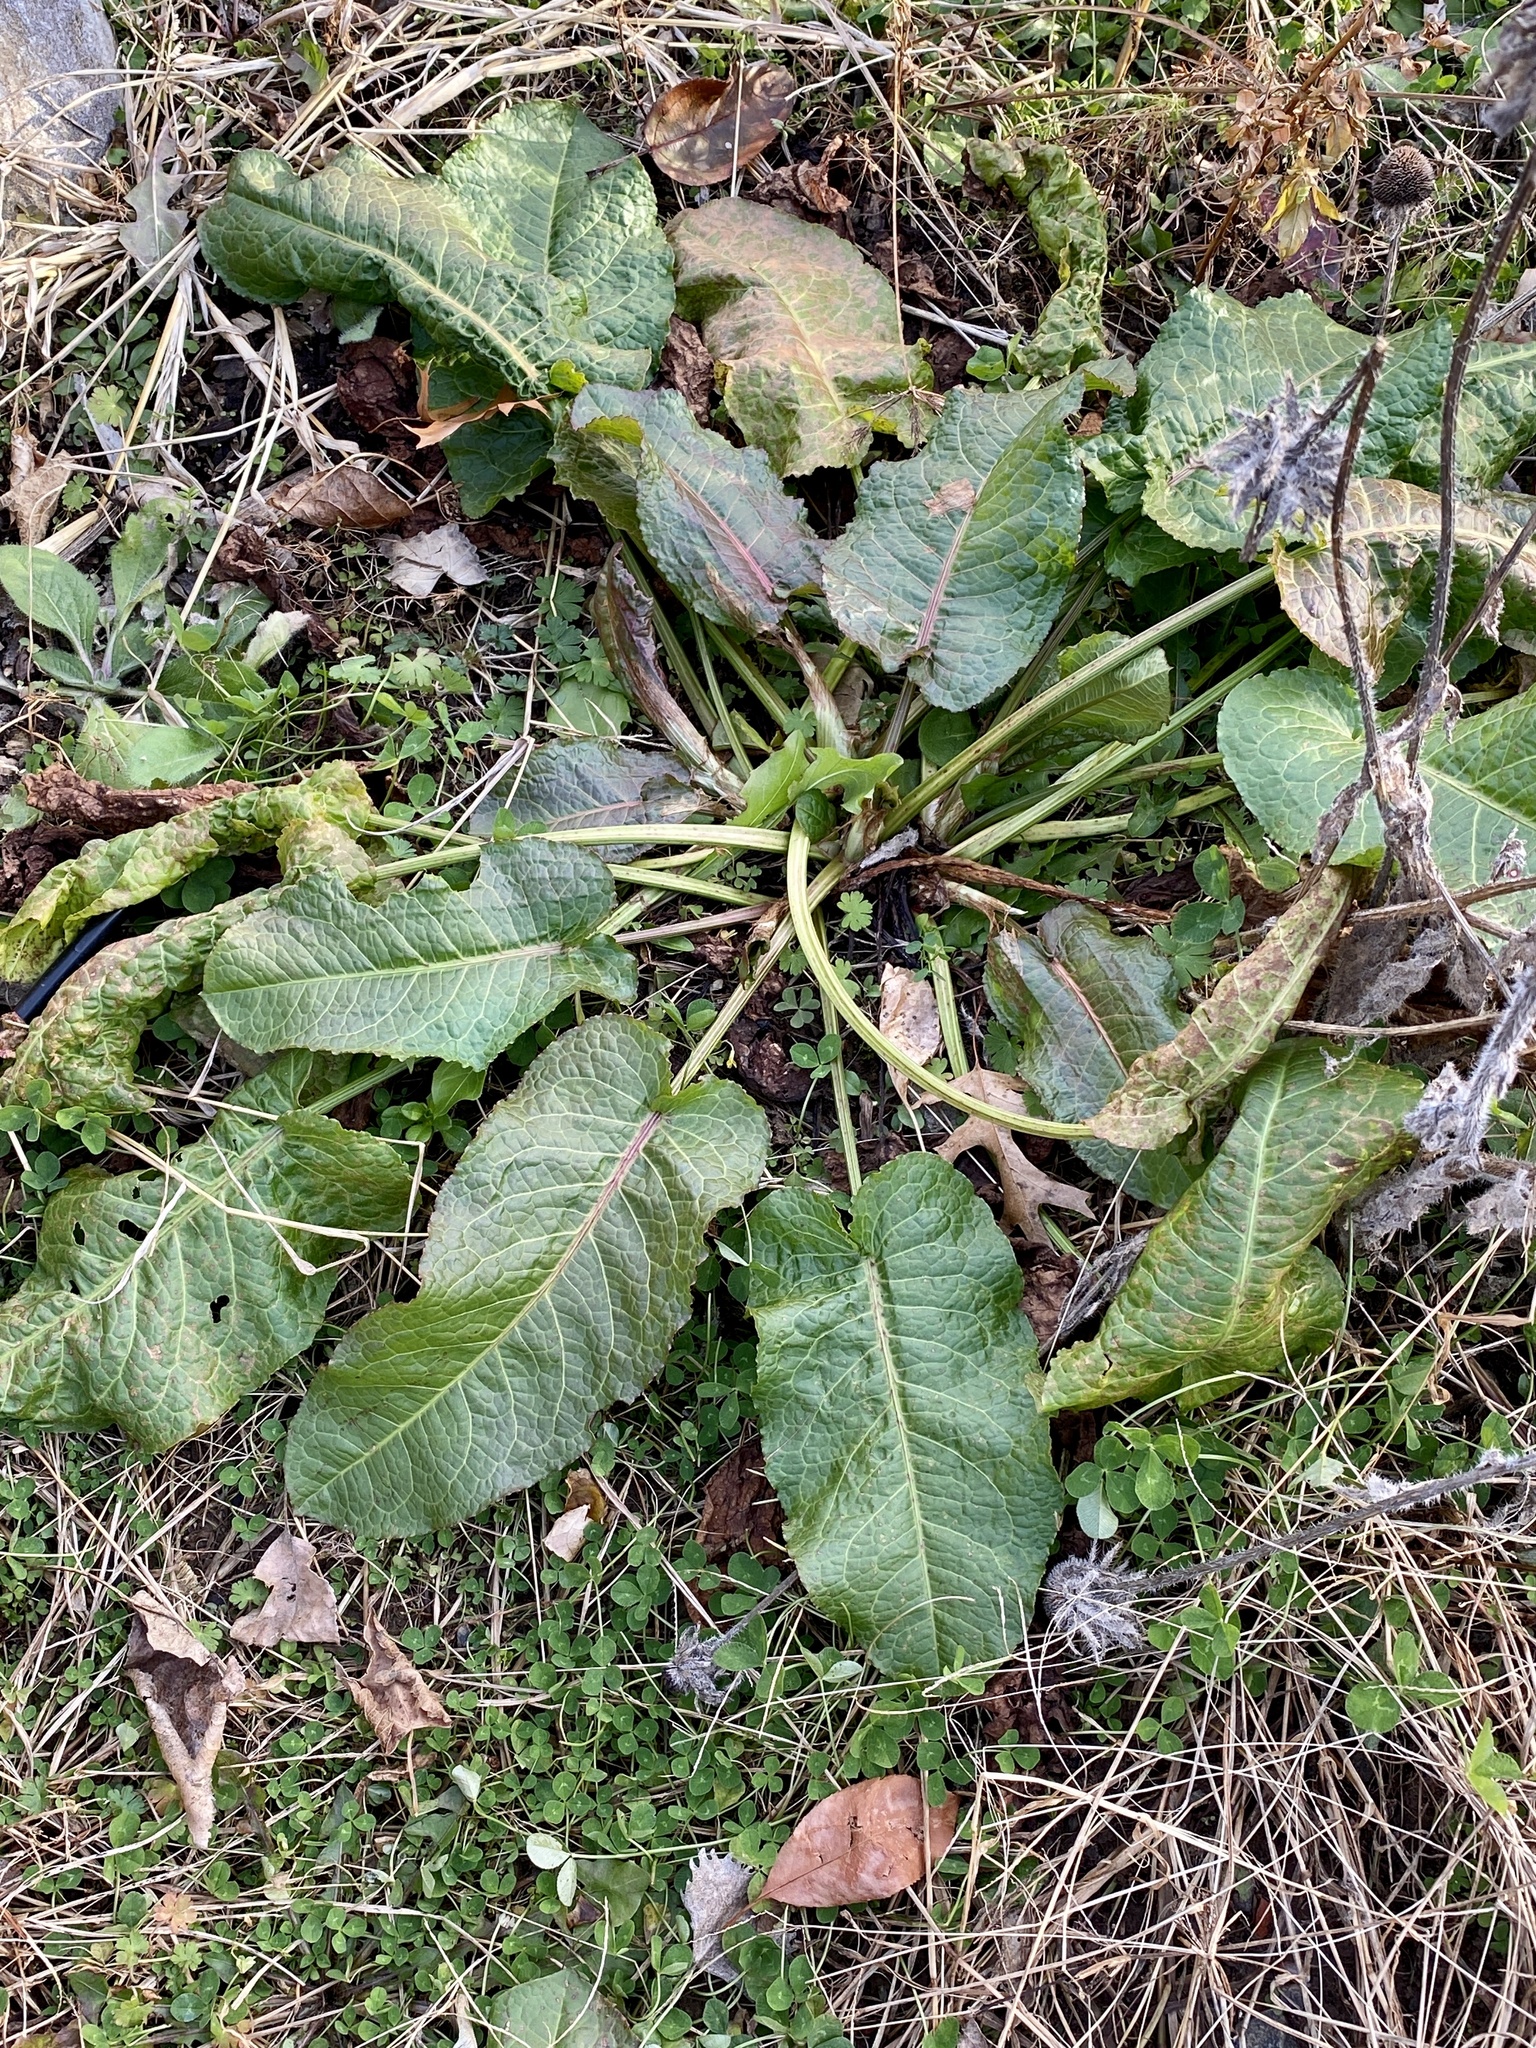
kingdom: Plantae
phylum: Tracheophyta
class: Magnoliopsida
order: Caryophyllales
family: Polygonaceae
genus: Rumex
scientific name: Rumex obtusifolius
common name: Bitter dock
